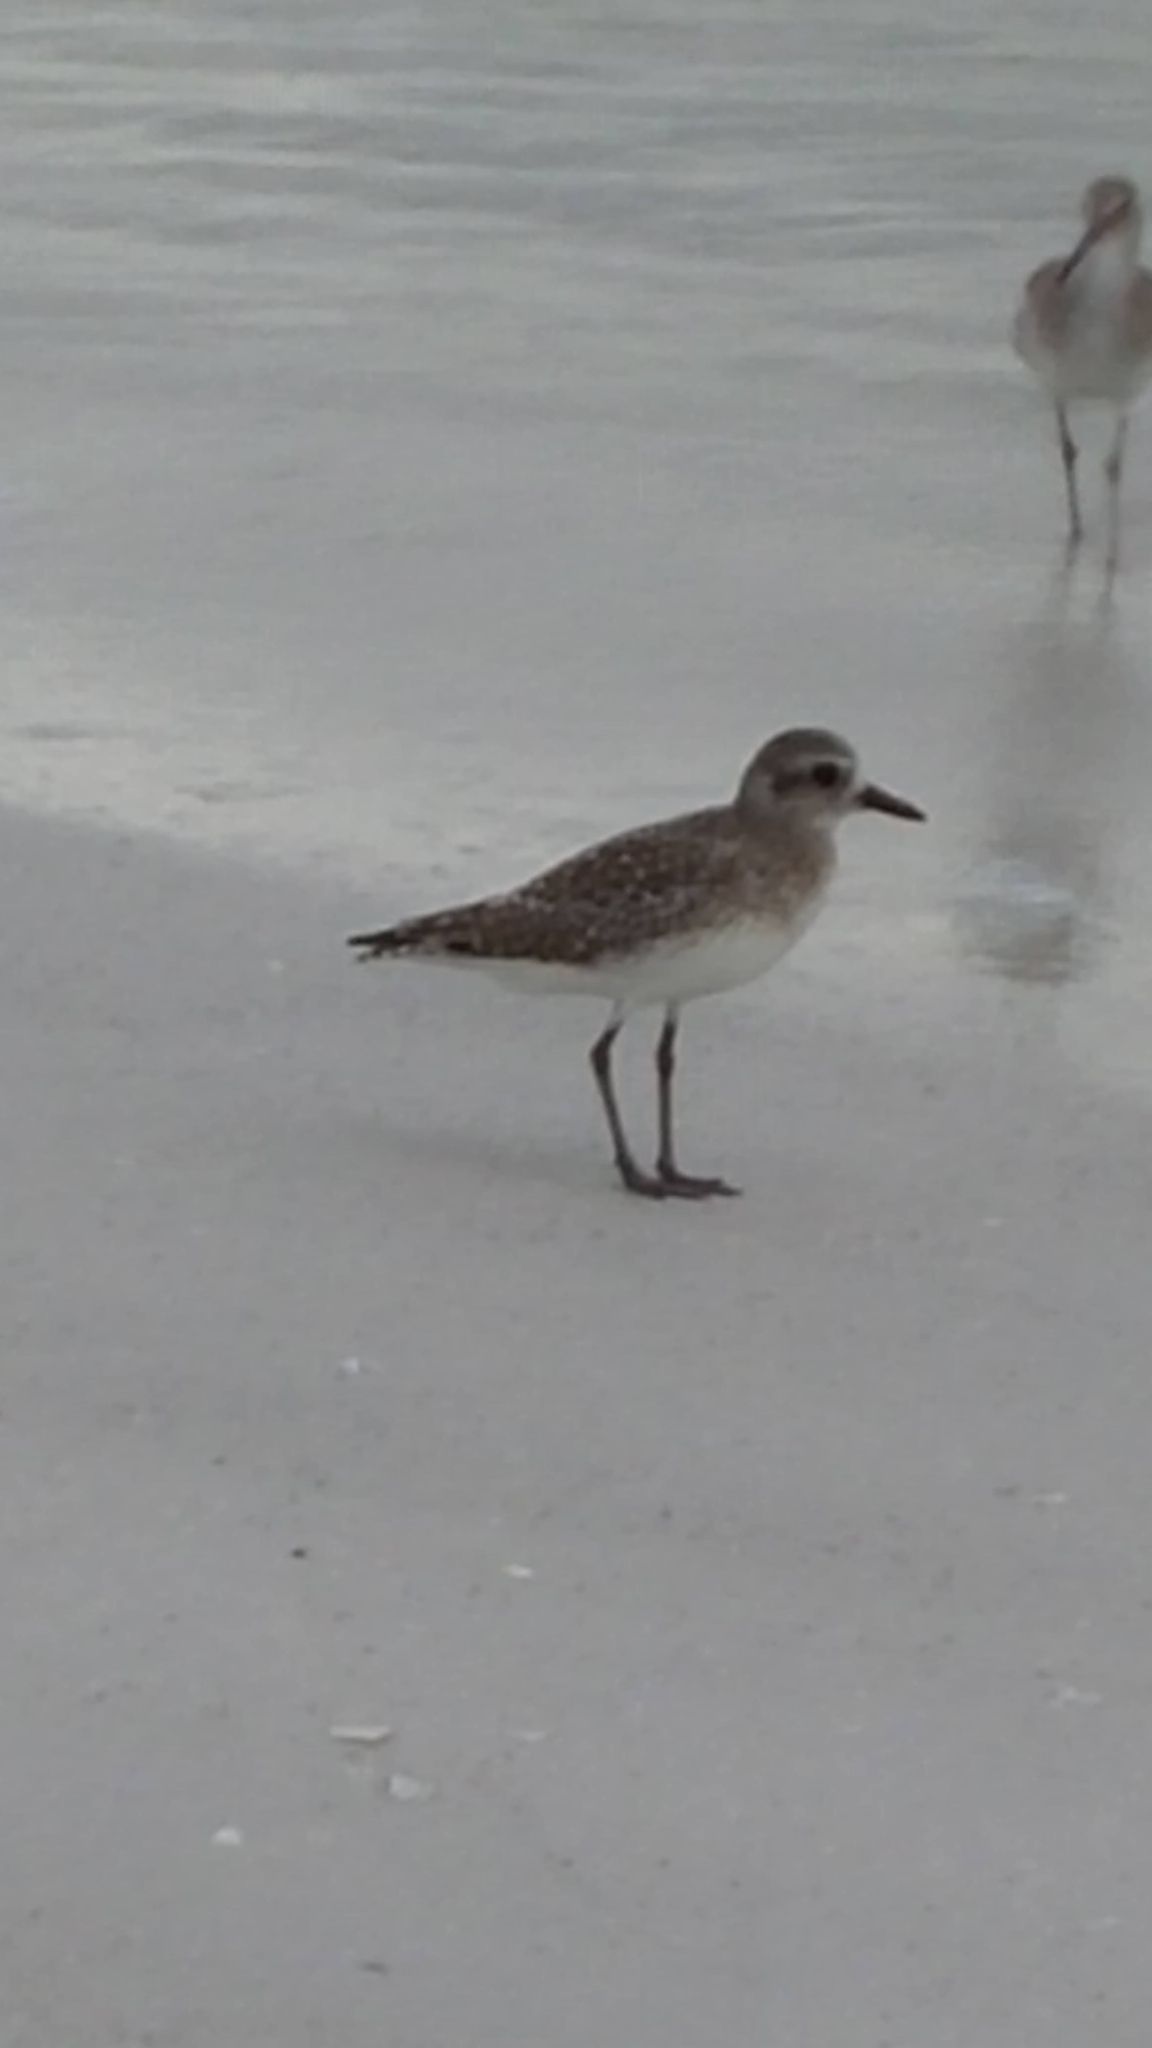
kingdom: Animalia
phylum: Chordata
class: Aves
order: Charadriiformes
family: Charadriidae
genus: Pluvialis
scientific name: Pluvialis squatarola
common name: Grey plover
